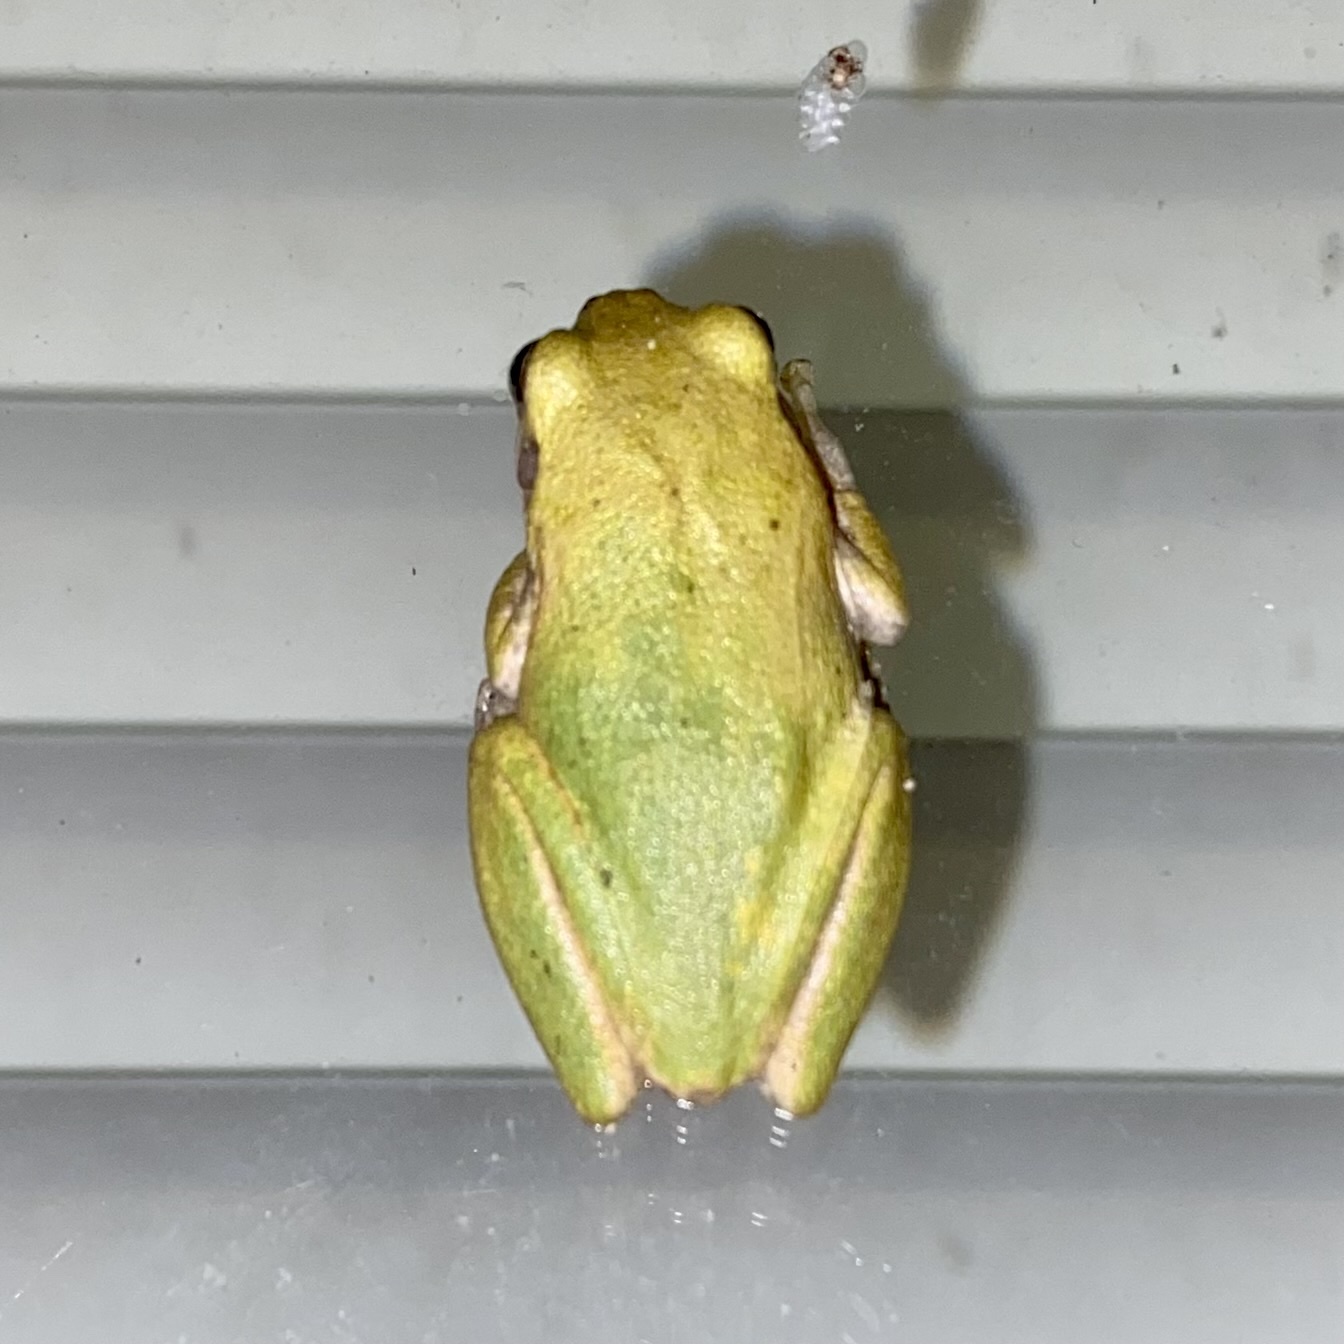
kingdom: Animalia
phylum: Chordata
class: Amphibia
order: Anura
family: Hylidae
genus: Dryophytes
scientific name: Dryophytes squirellus
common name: Squirrel treefrog
